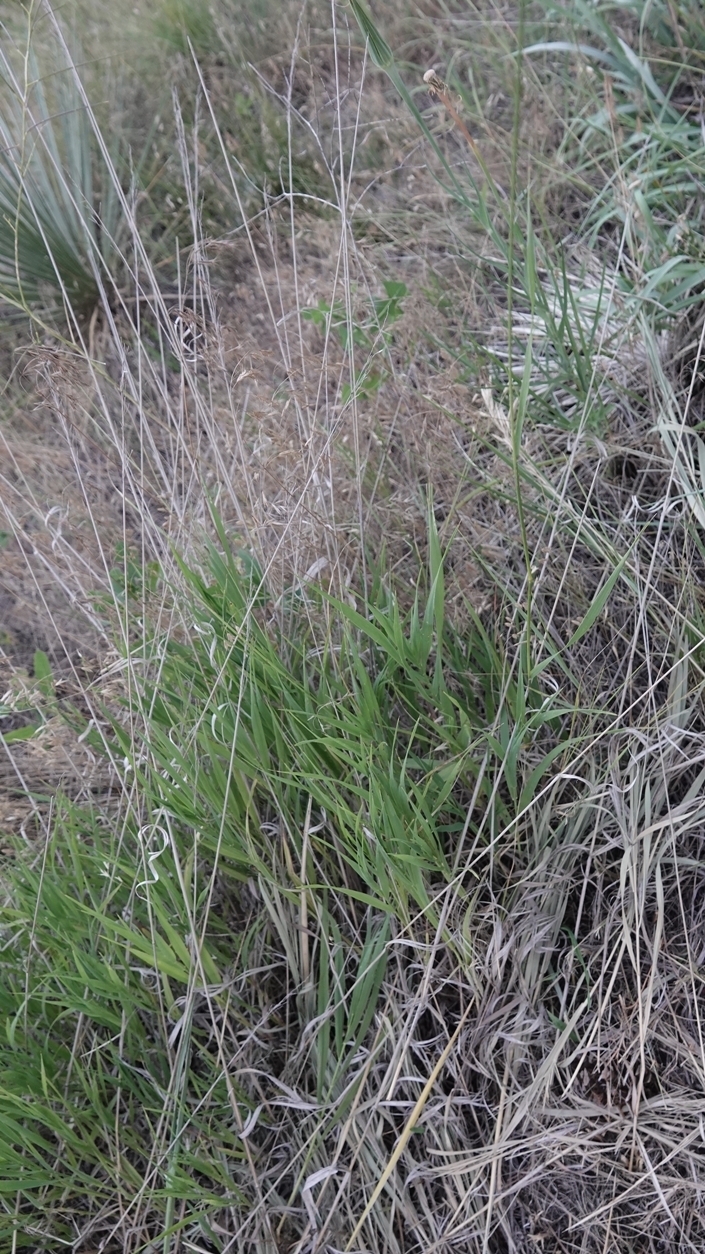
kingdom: Plantae
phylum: Tracheophyta
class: Liliopsida
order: Poales
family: Poaceae
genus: Bromus
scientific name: Bromus inermis
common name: Smooth brome
